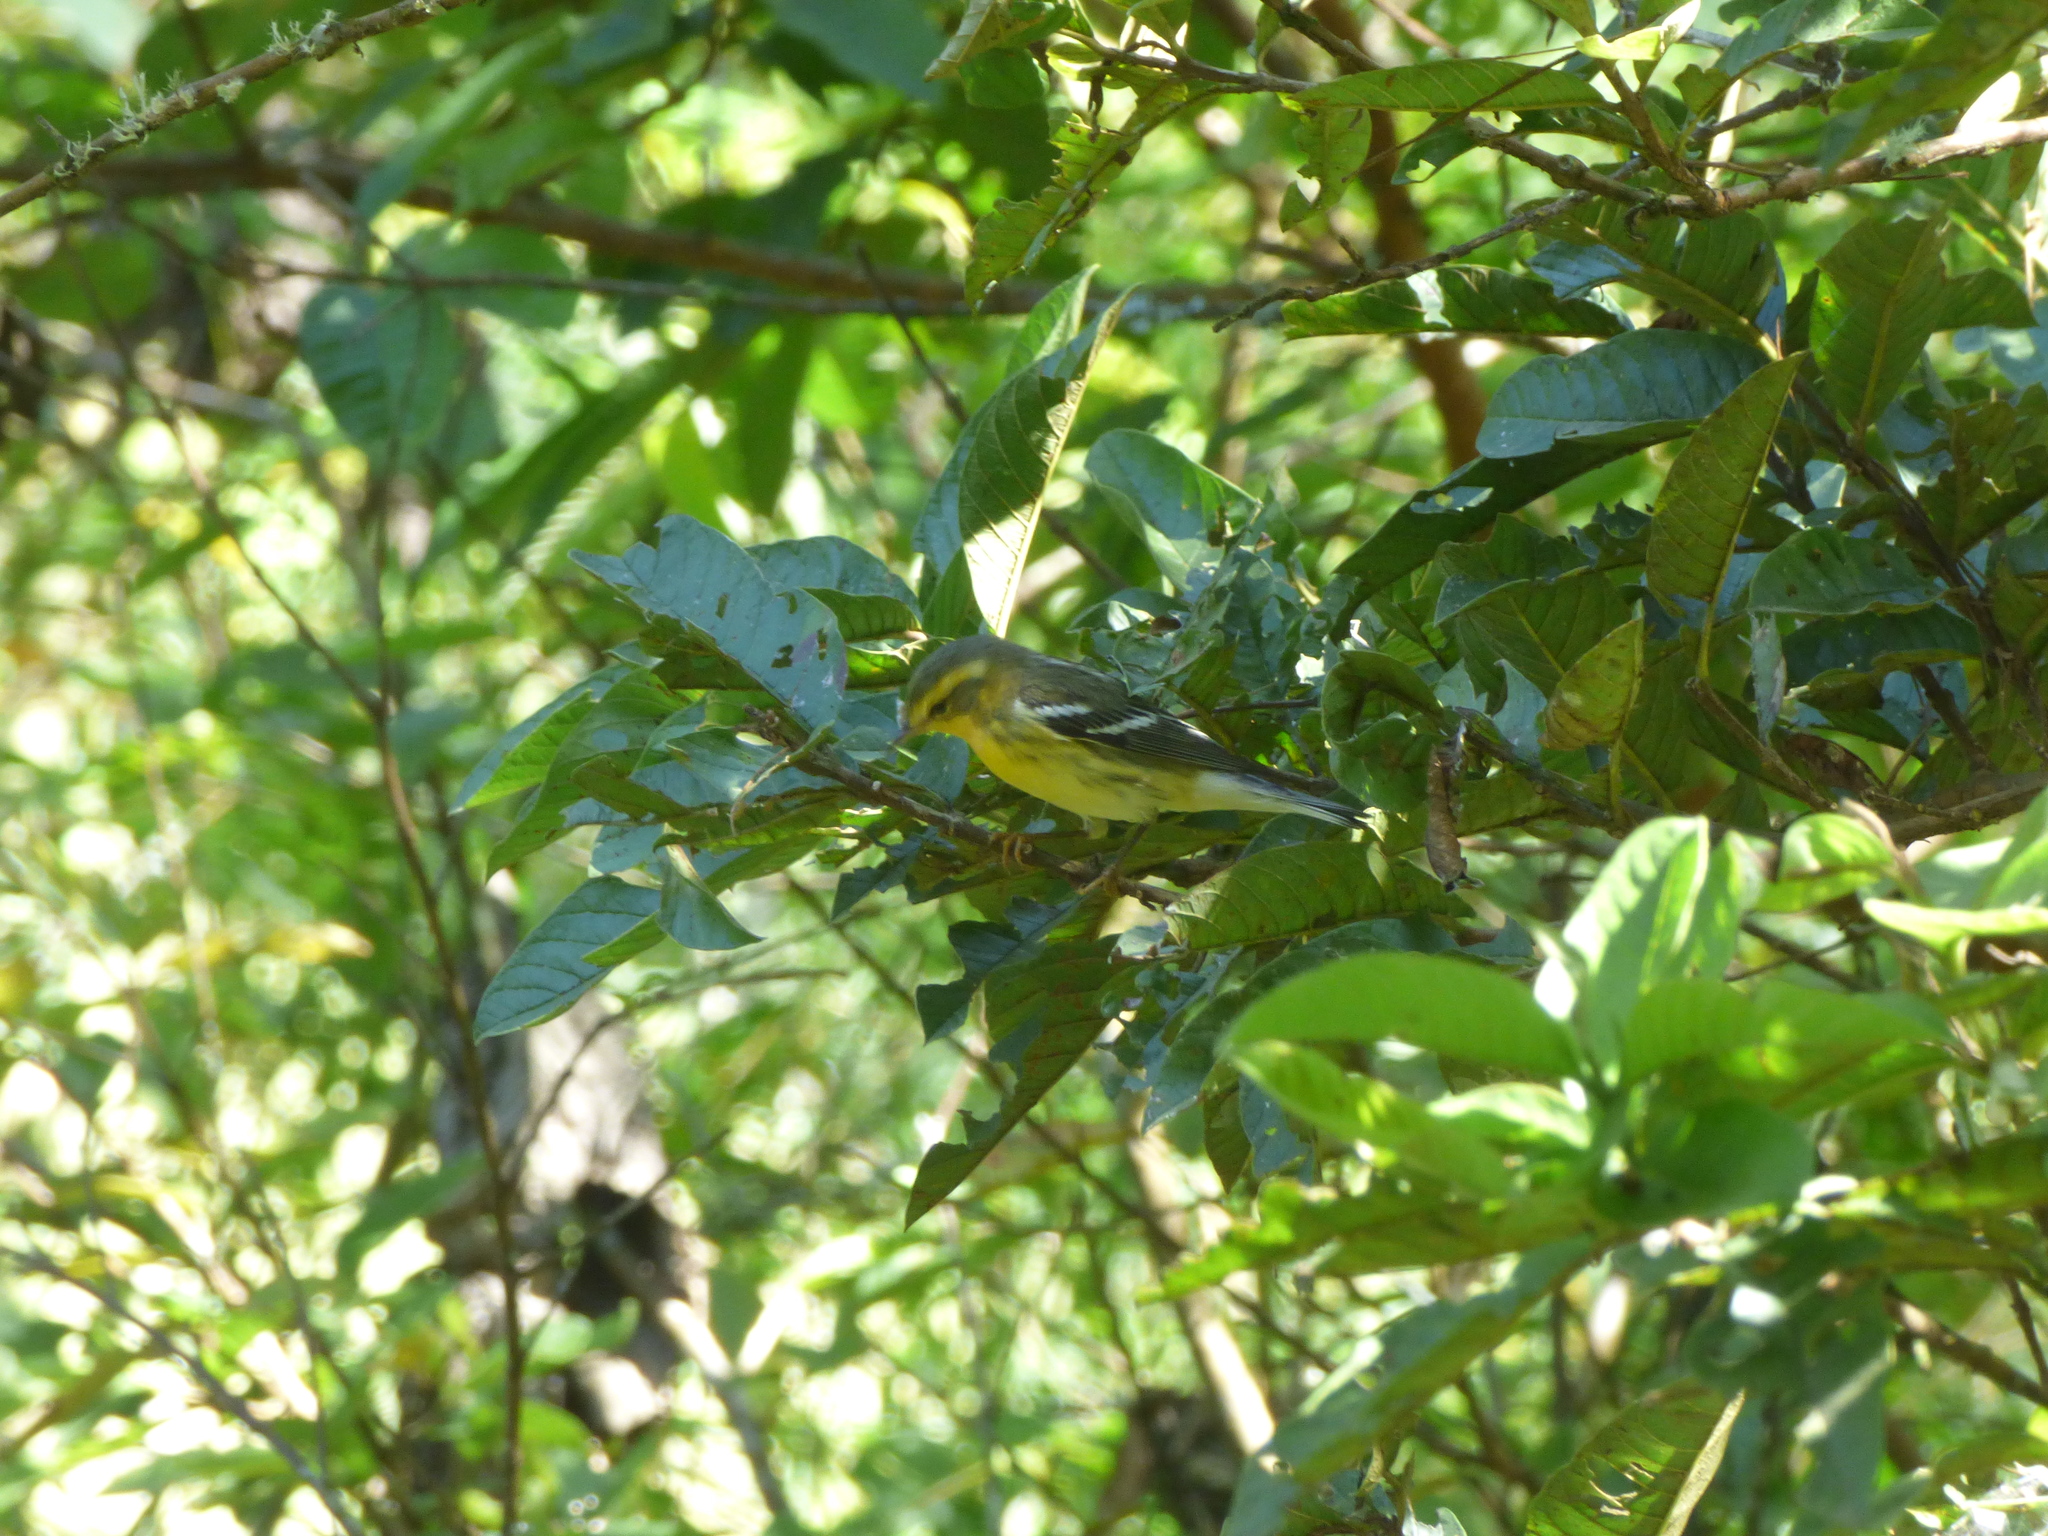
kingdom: Animalia
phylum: Chordata
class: Aves
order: Passeriformes
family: Parulidae
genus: Setophaga
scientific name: Setophaga fusca
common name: Blackburnian warbler
